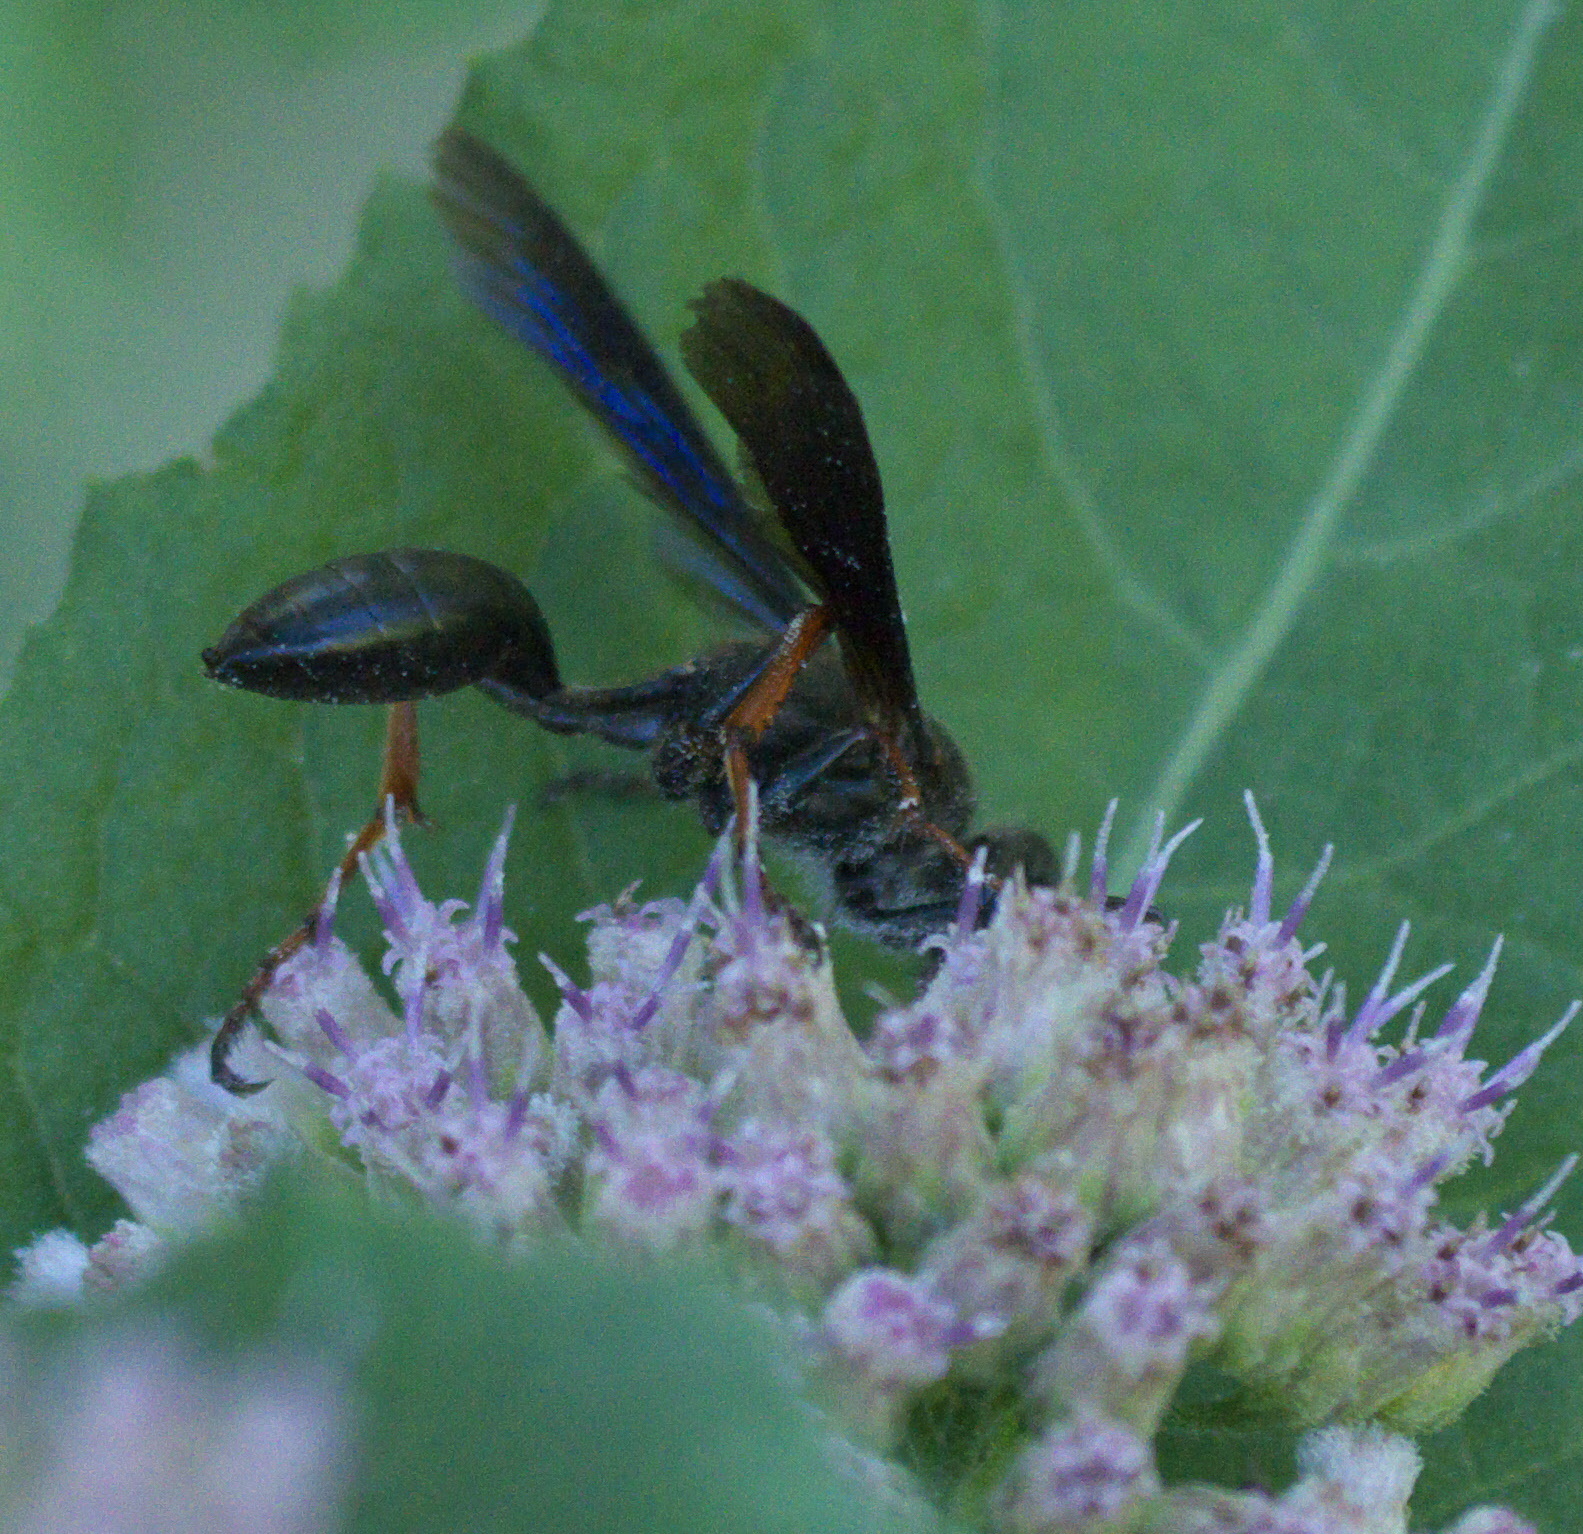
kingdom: Animalia
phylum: Arthropoda
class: Insecta
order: Hymenoptera
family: Sphecidae
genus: Isodontia
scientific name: Isodontia auripes
